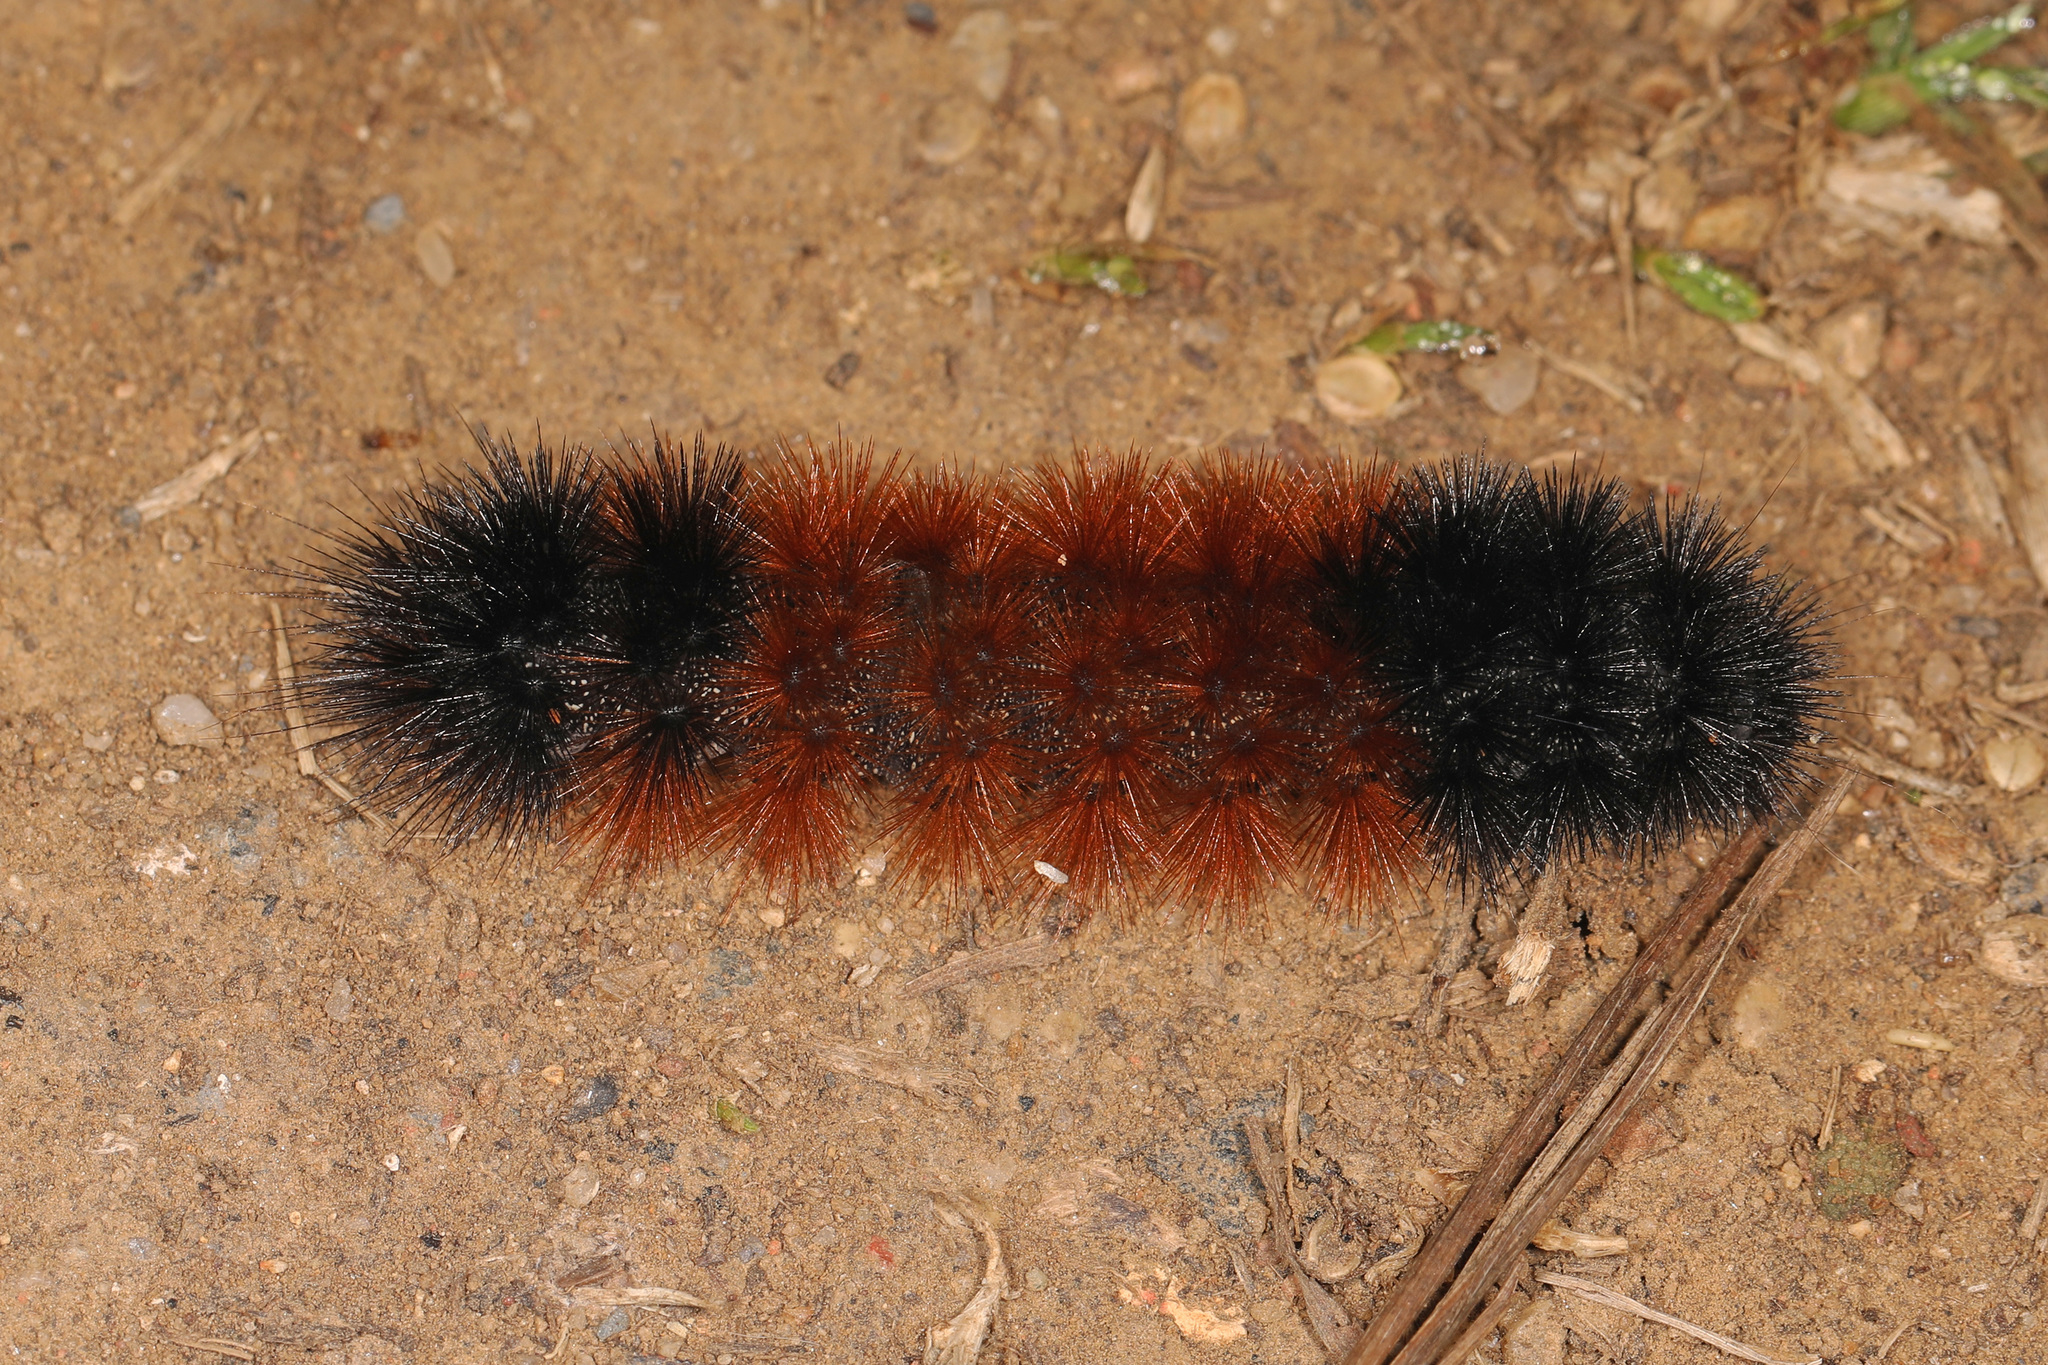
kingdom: Animalia
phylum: Arthropoda
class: Insecta
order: Lepidoptera
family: Erebidae
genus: Pyrrharctia
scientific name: Pyrrharctia isabella
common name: Isabella tiger moth
